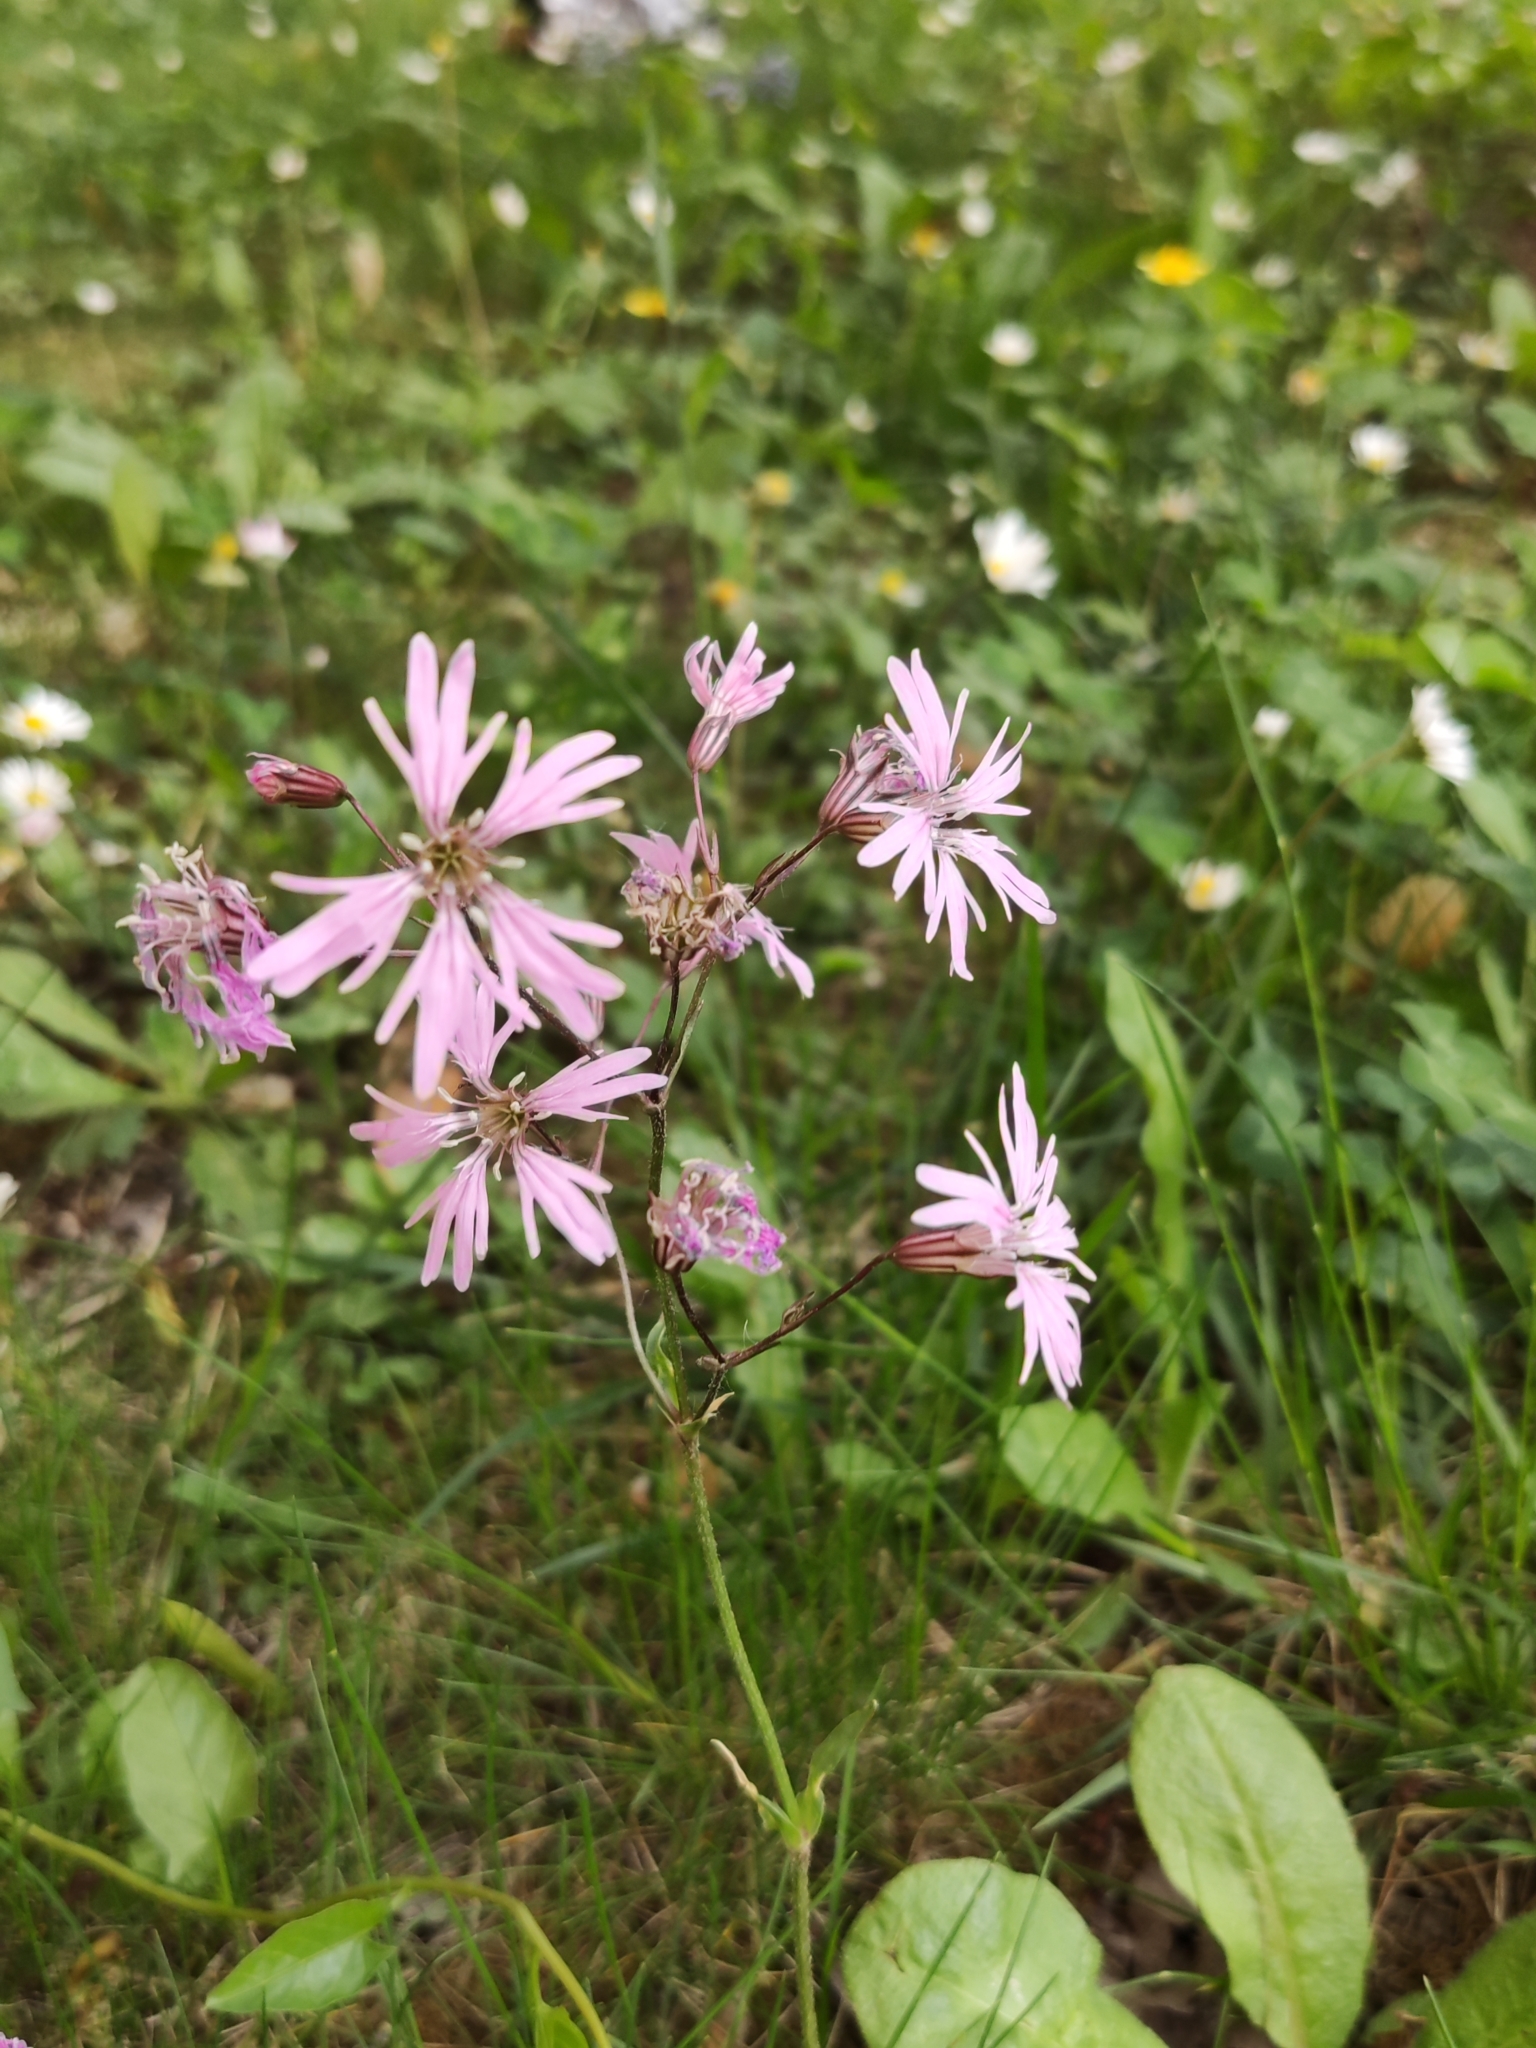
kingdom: Plantae
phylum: Tracheophyta
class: Magnoliopsida
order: Caryophyllales
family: Caryophyllaceae
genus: Silene
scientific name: Silene flos-cuculi
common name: Ragged-robin
